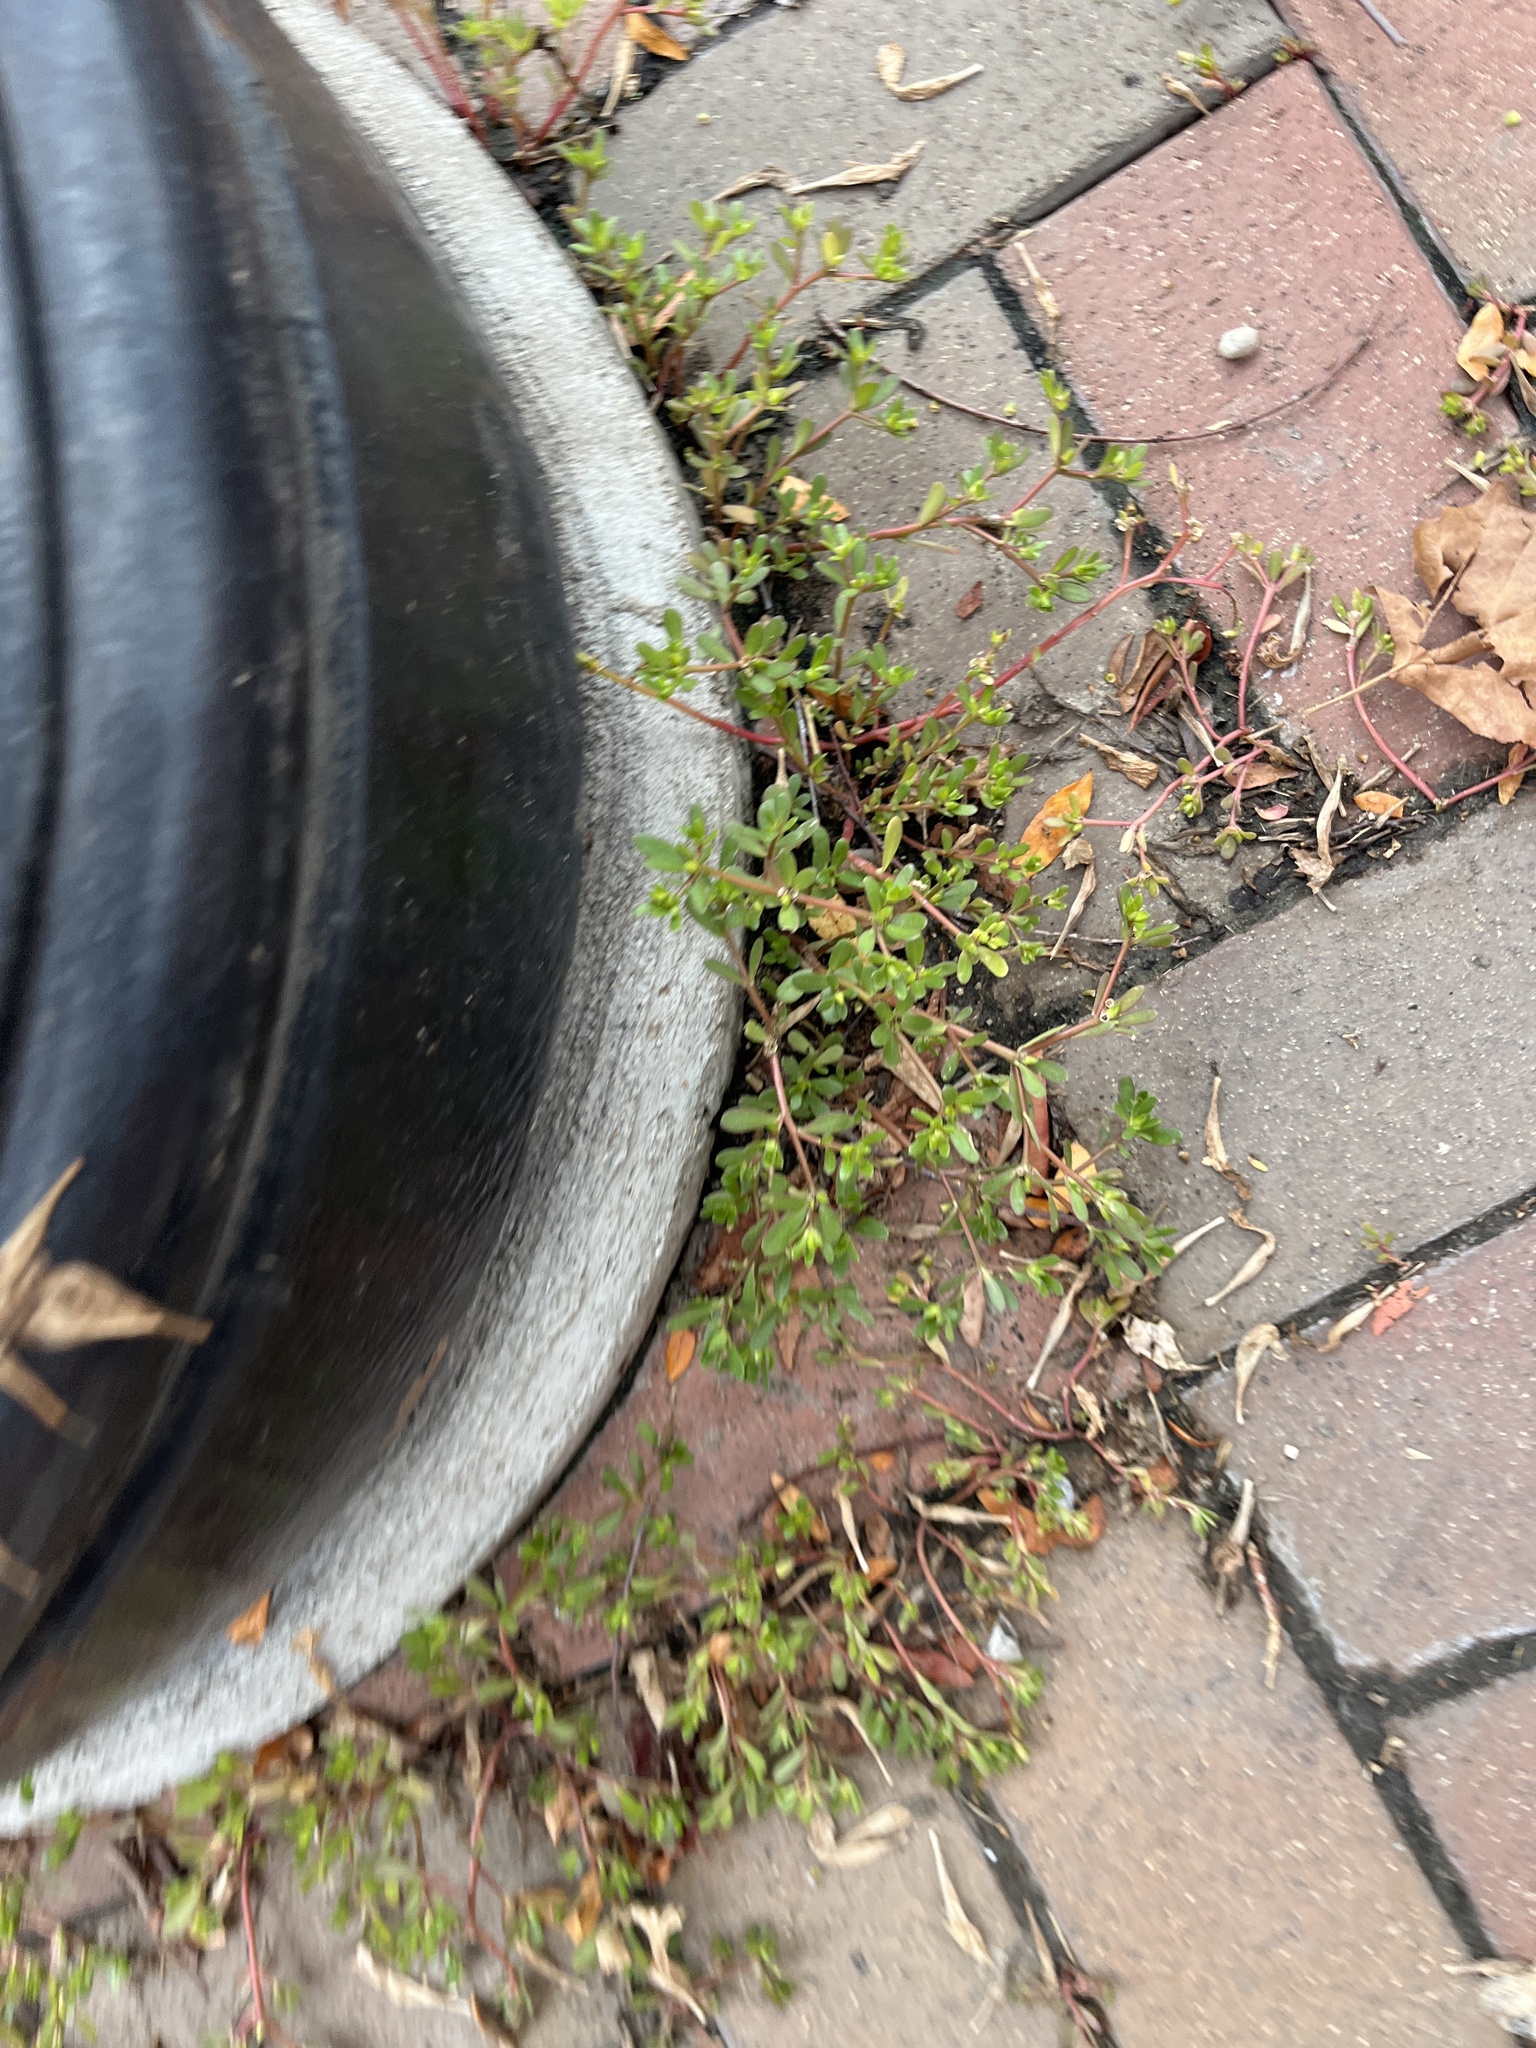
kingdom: Plantae
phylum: Tracheophyta
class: Magnoliopsida
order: Caryophyllales
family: Portulacaceae
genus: Portulaca
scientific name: Portulaca oleracea
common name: Common purslane
